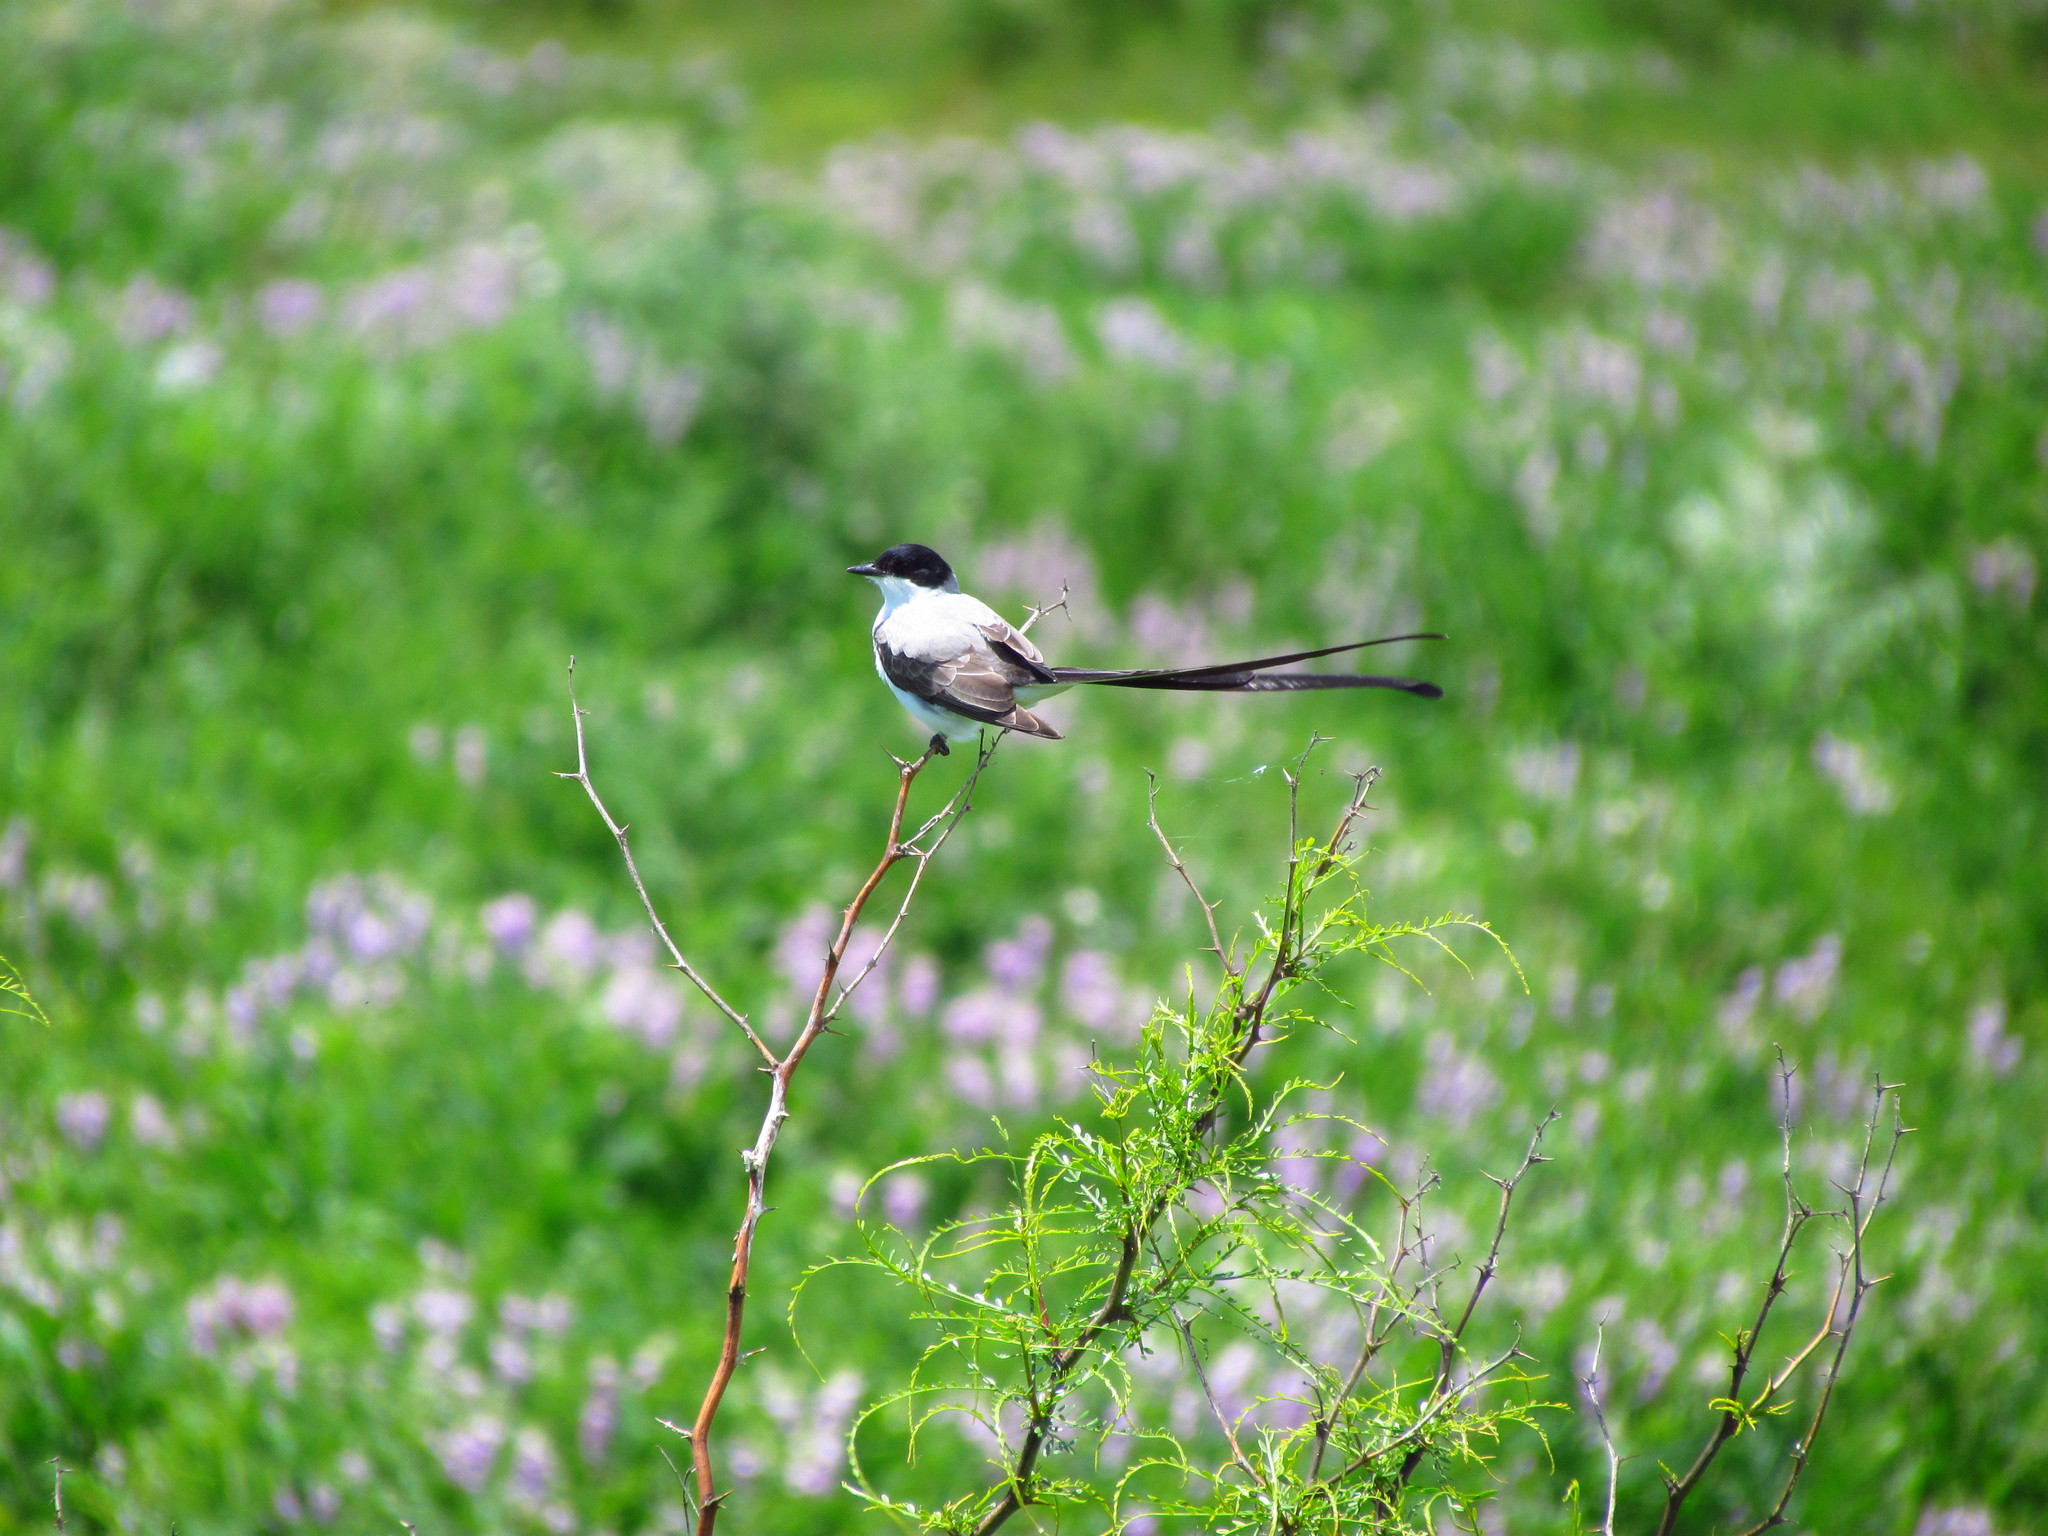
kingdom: Animalia
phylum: Chordata
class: Aves
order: Passeriformes
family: Tyrannidae
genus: Tyrannus
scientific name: Tyrannus savana
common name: Fork-tailed flycatcher
